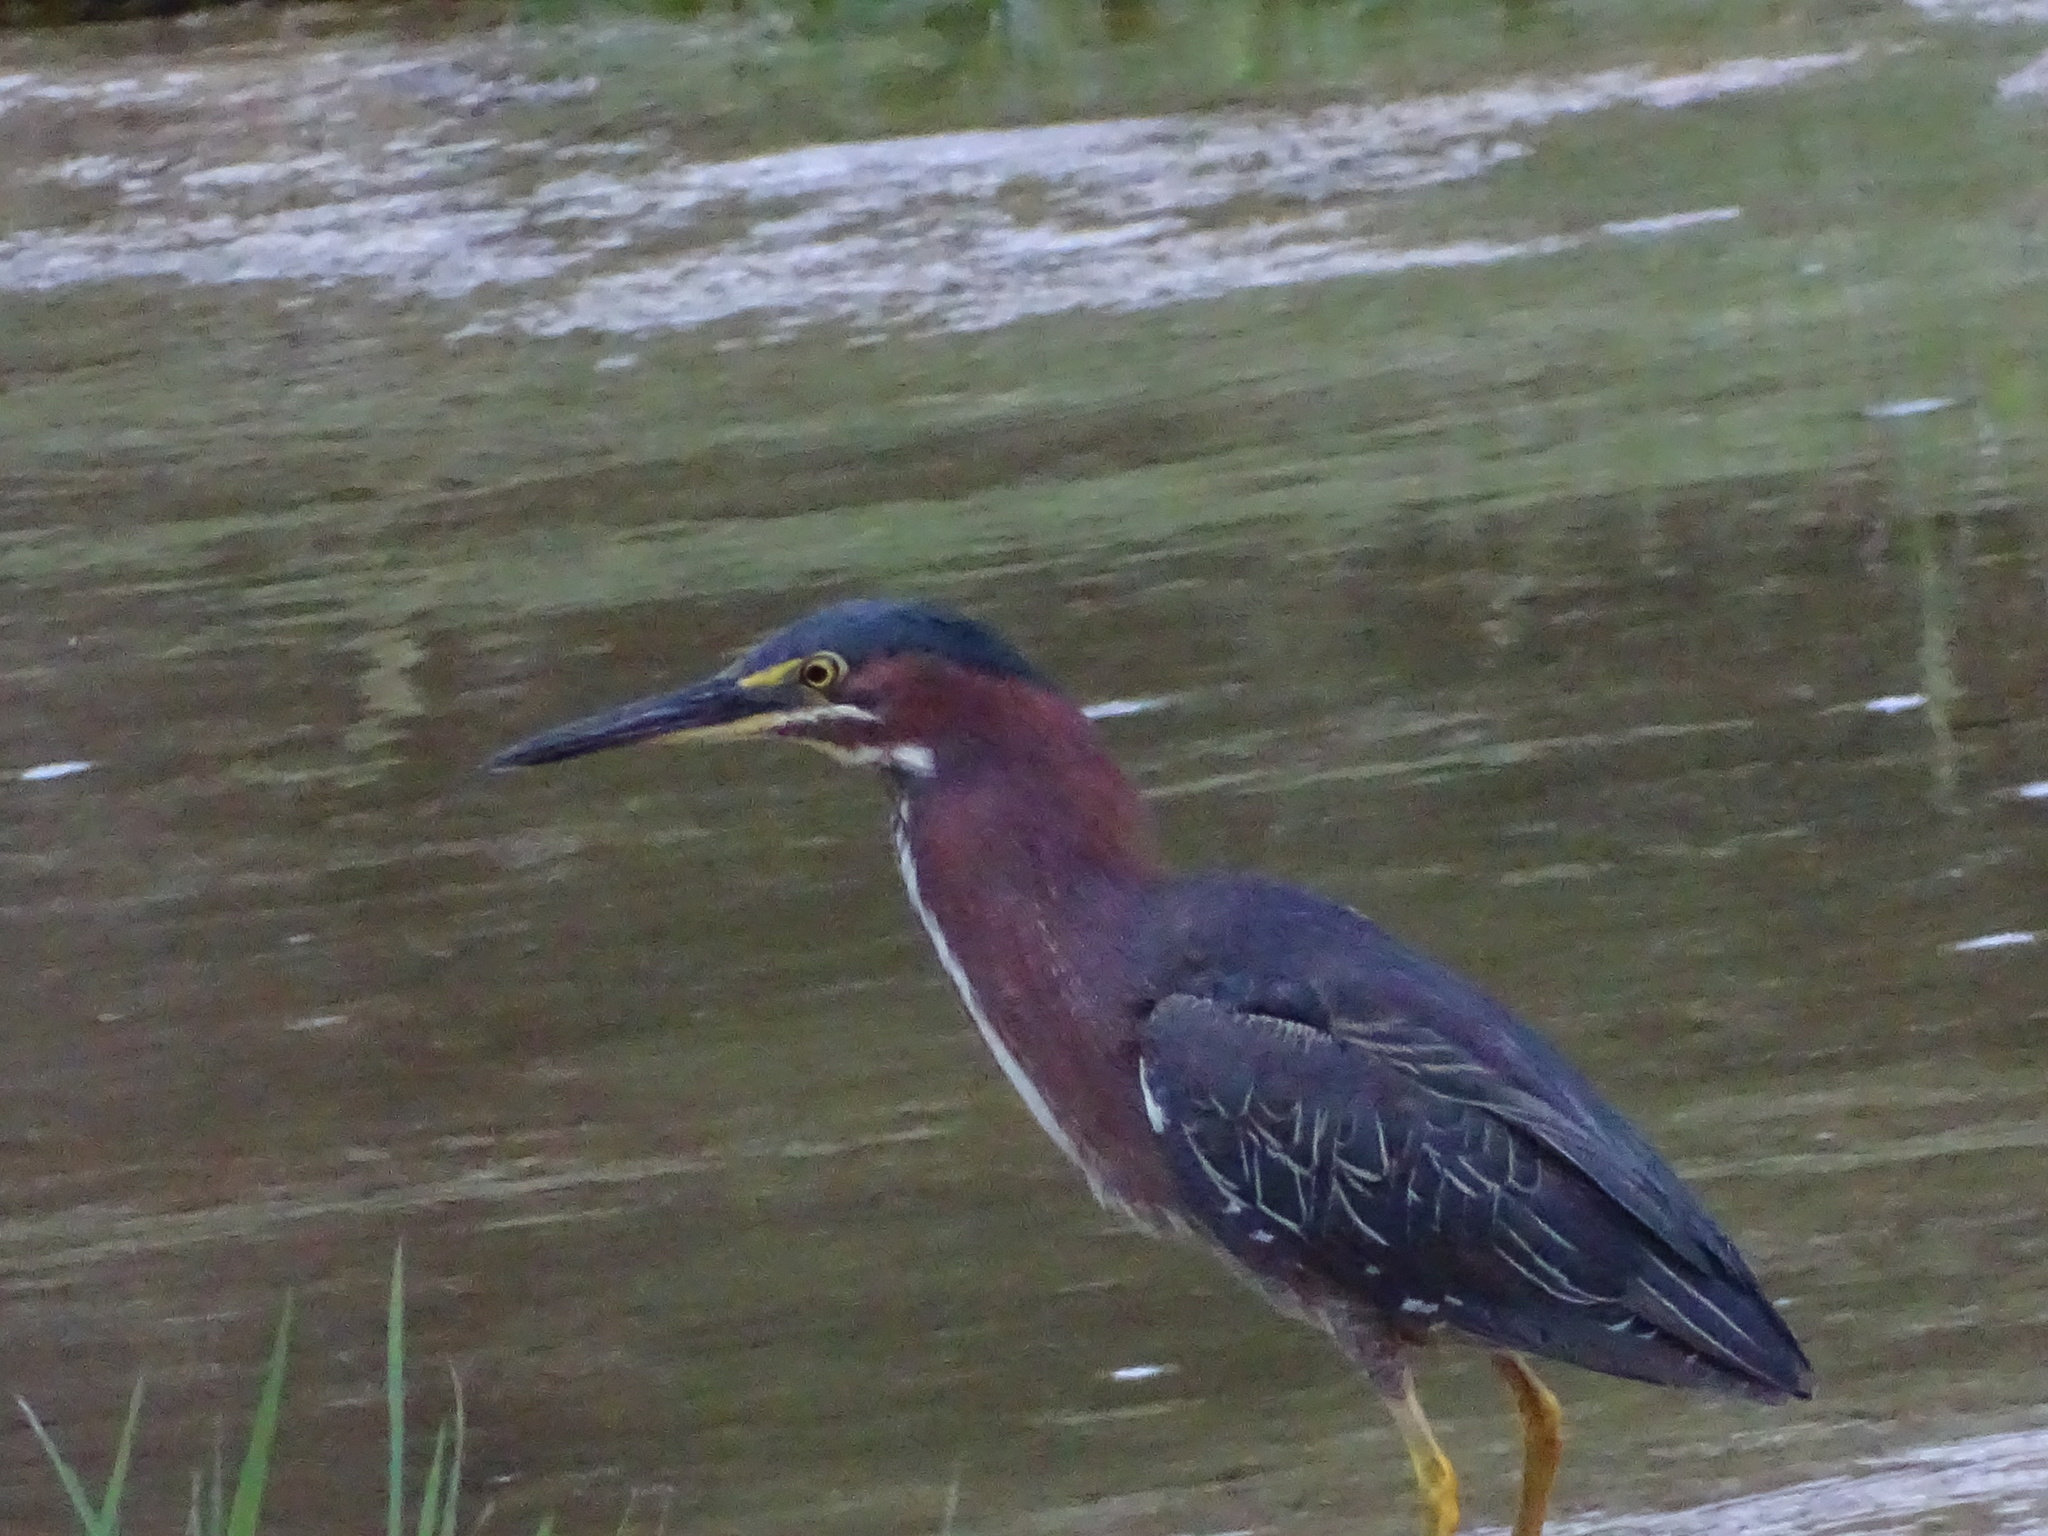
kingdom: Animalia
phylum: Chordata
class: Aves
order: Pelecaniformes
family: Ardeidae
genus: Butorides
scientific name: Butorides virescens
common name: Green heron
